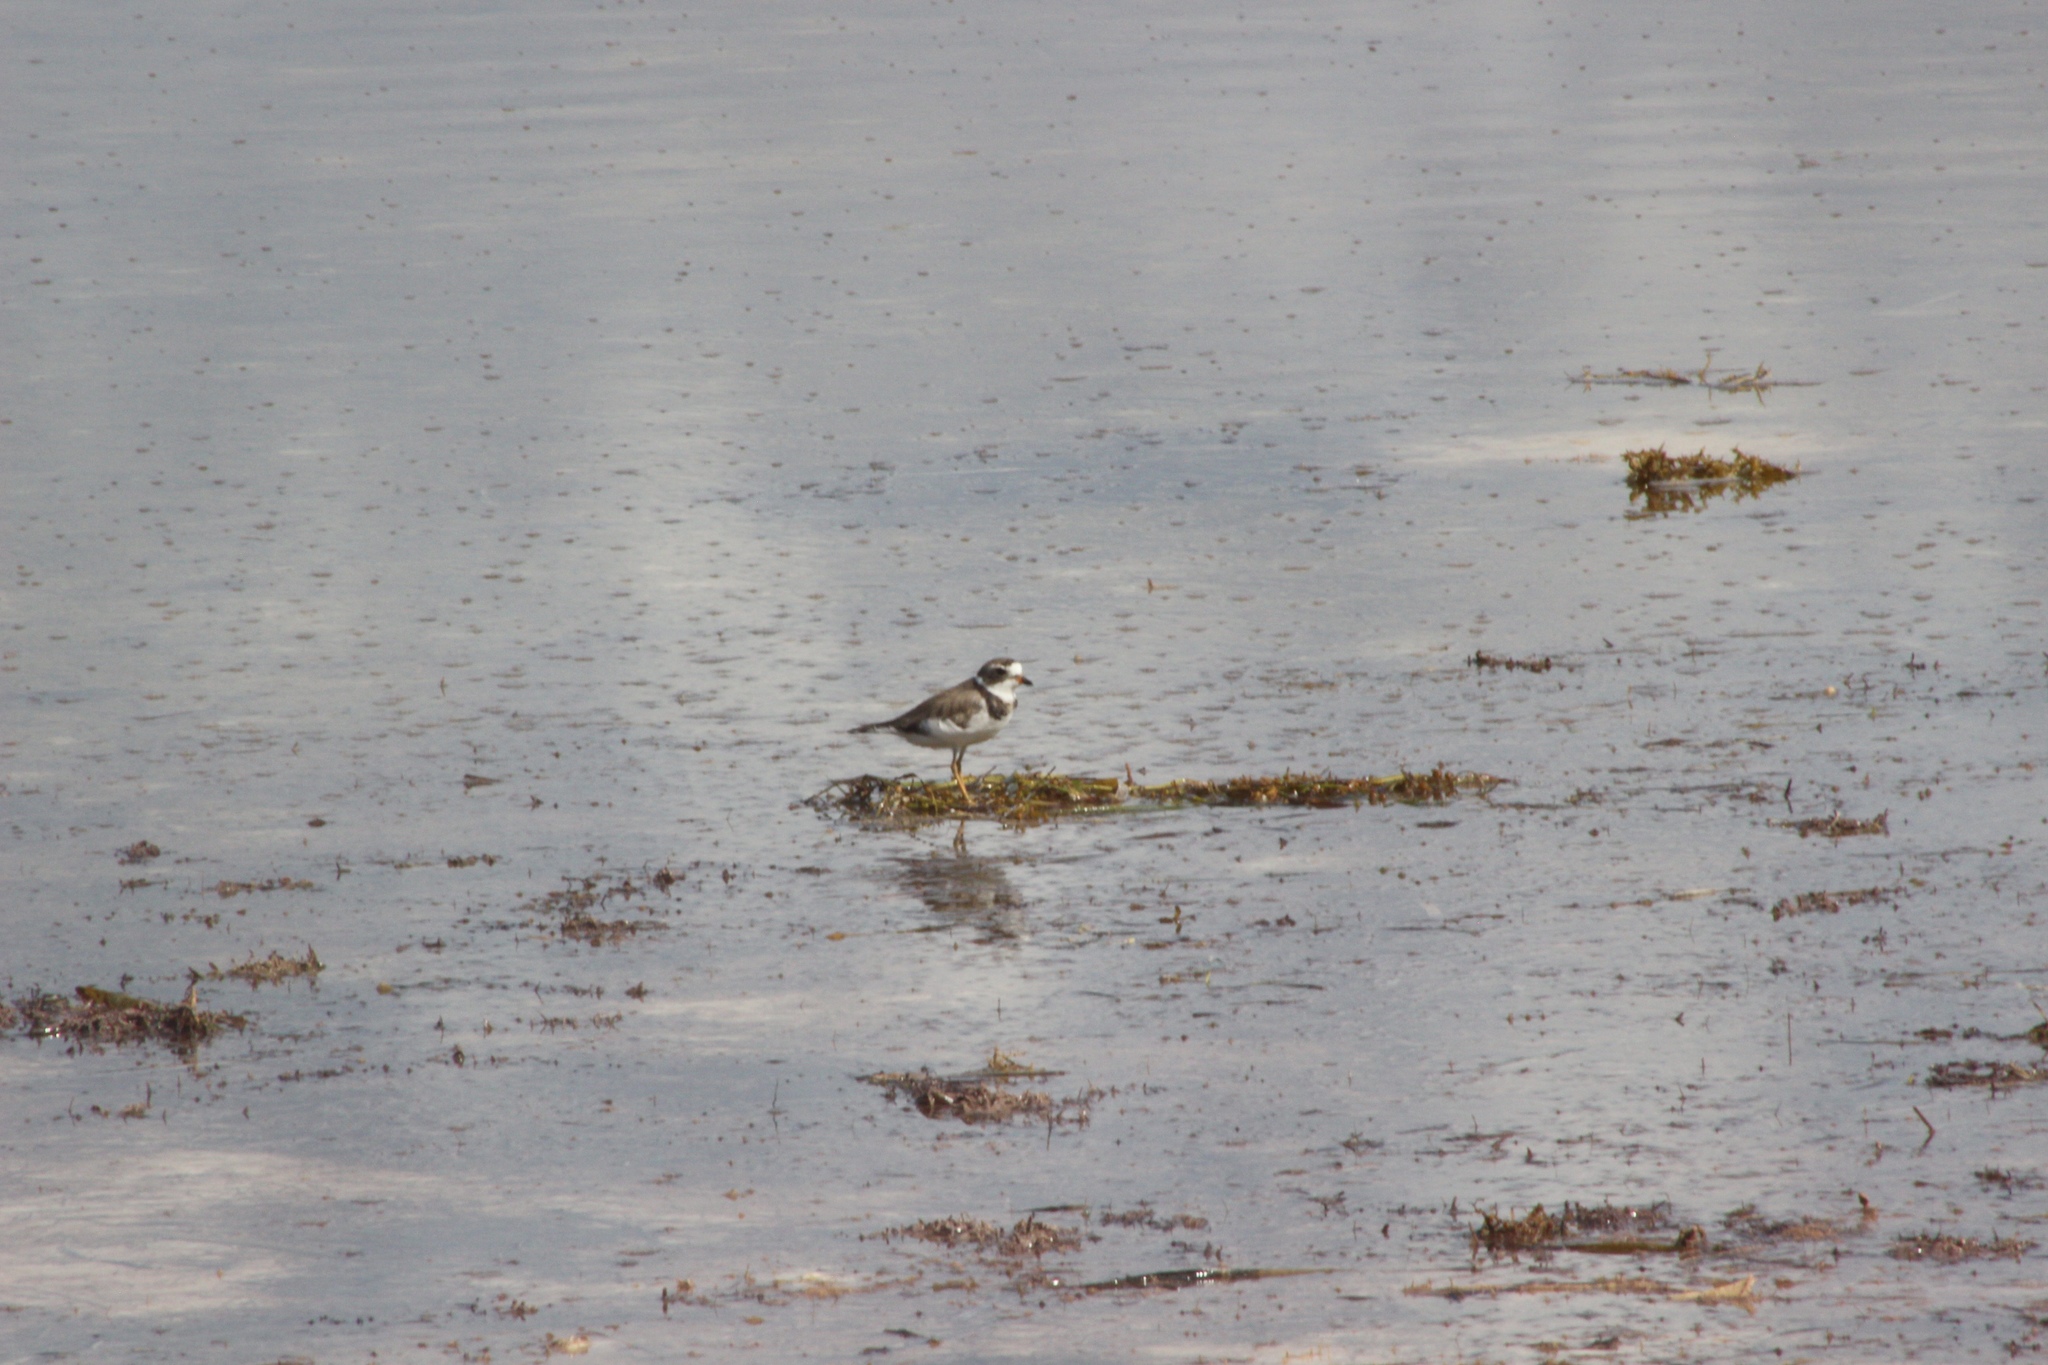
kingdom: Animalia
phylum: Chordata
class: Aves
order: Charadriiformes
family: Charadriidae
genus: Charadrius
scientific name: Charadrius semipalmatus
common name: Semipalmated plover
